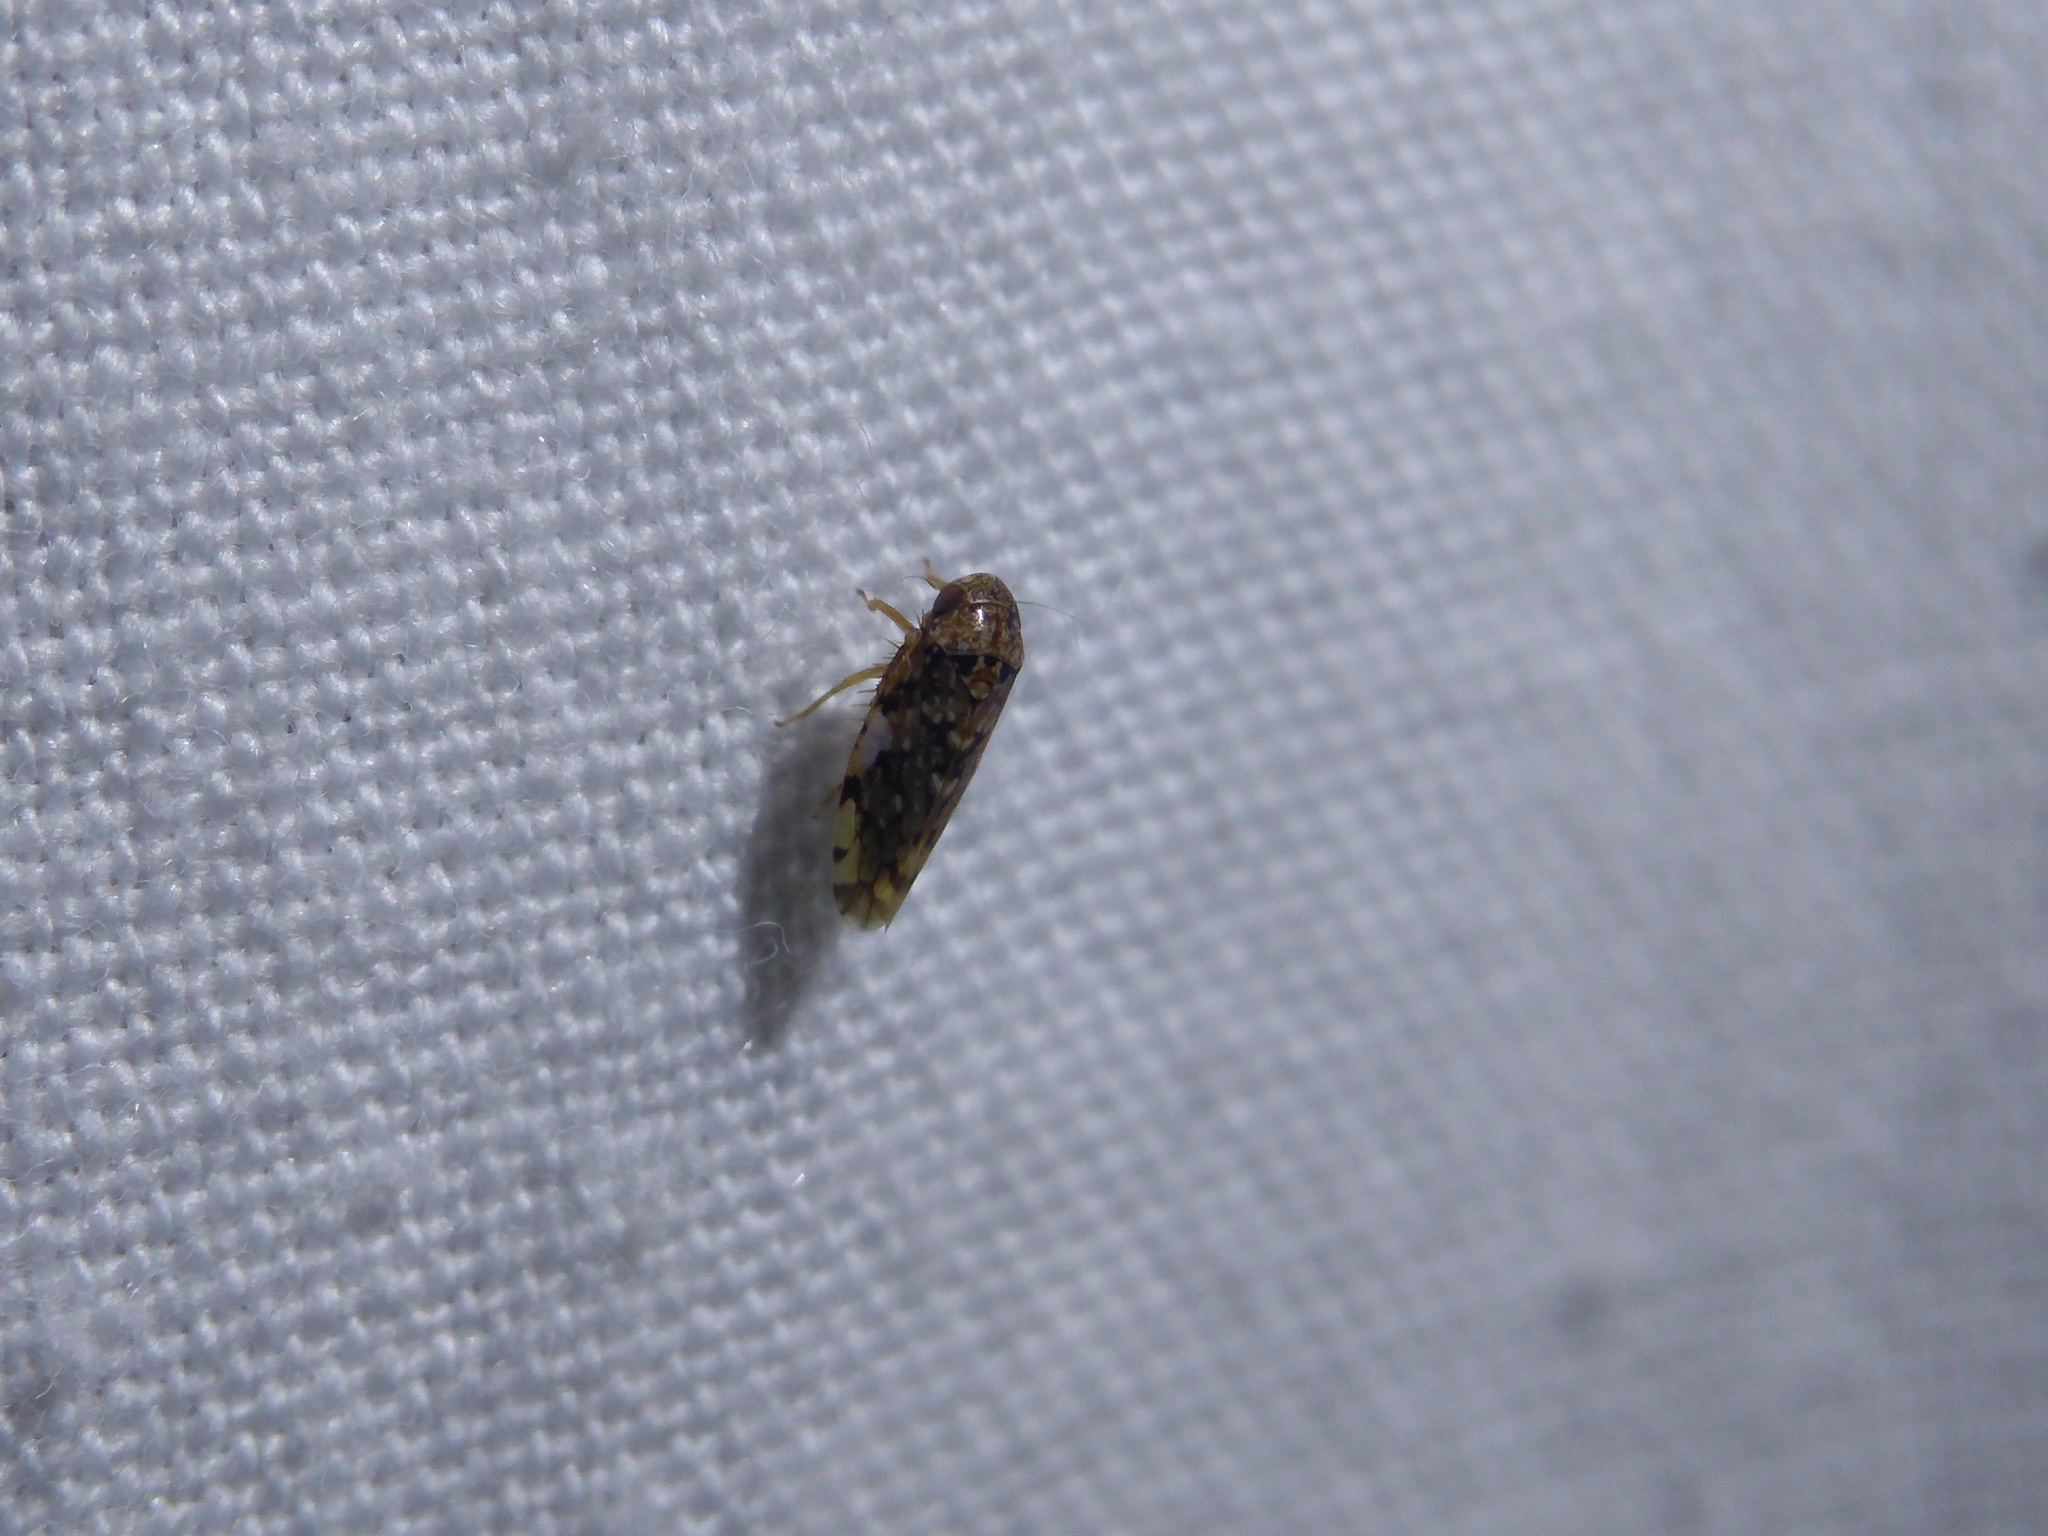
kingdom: Animalia
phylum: Arthropoda
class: Insecta
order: Hemiptera
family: Cicadellidae
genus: Xestocephalus
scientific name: Xestocephalus tessellatus
